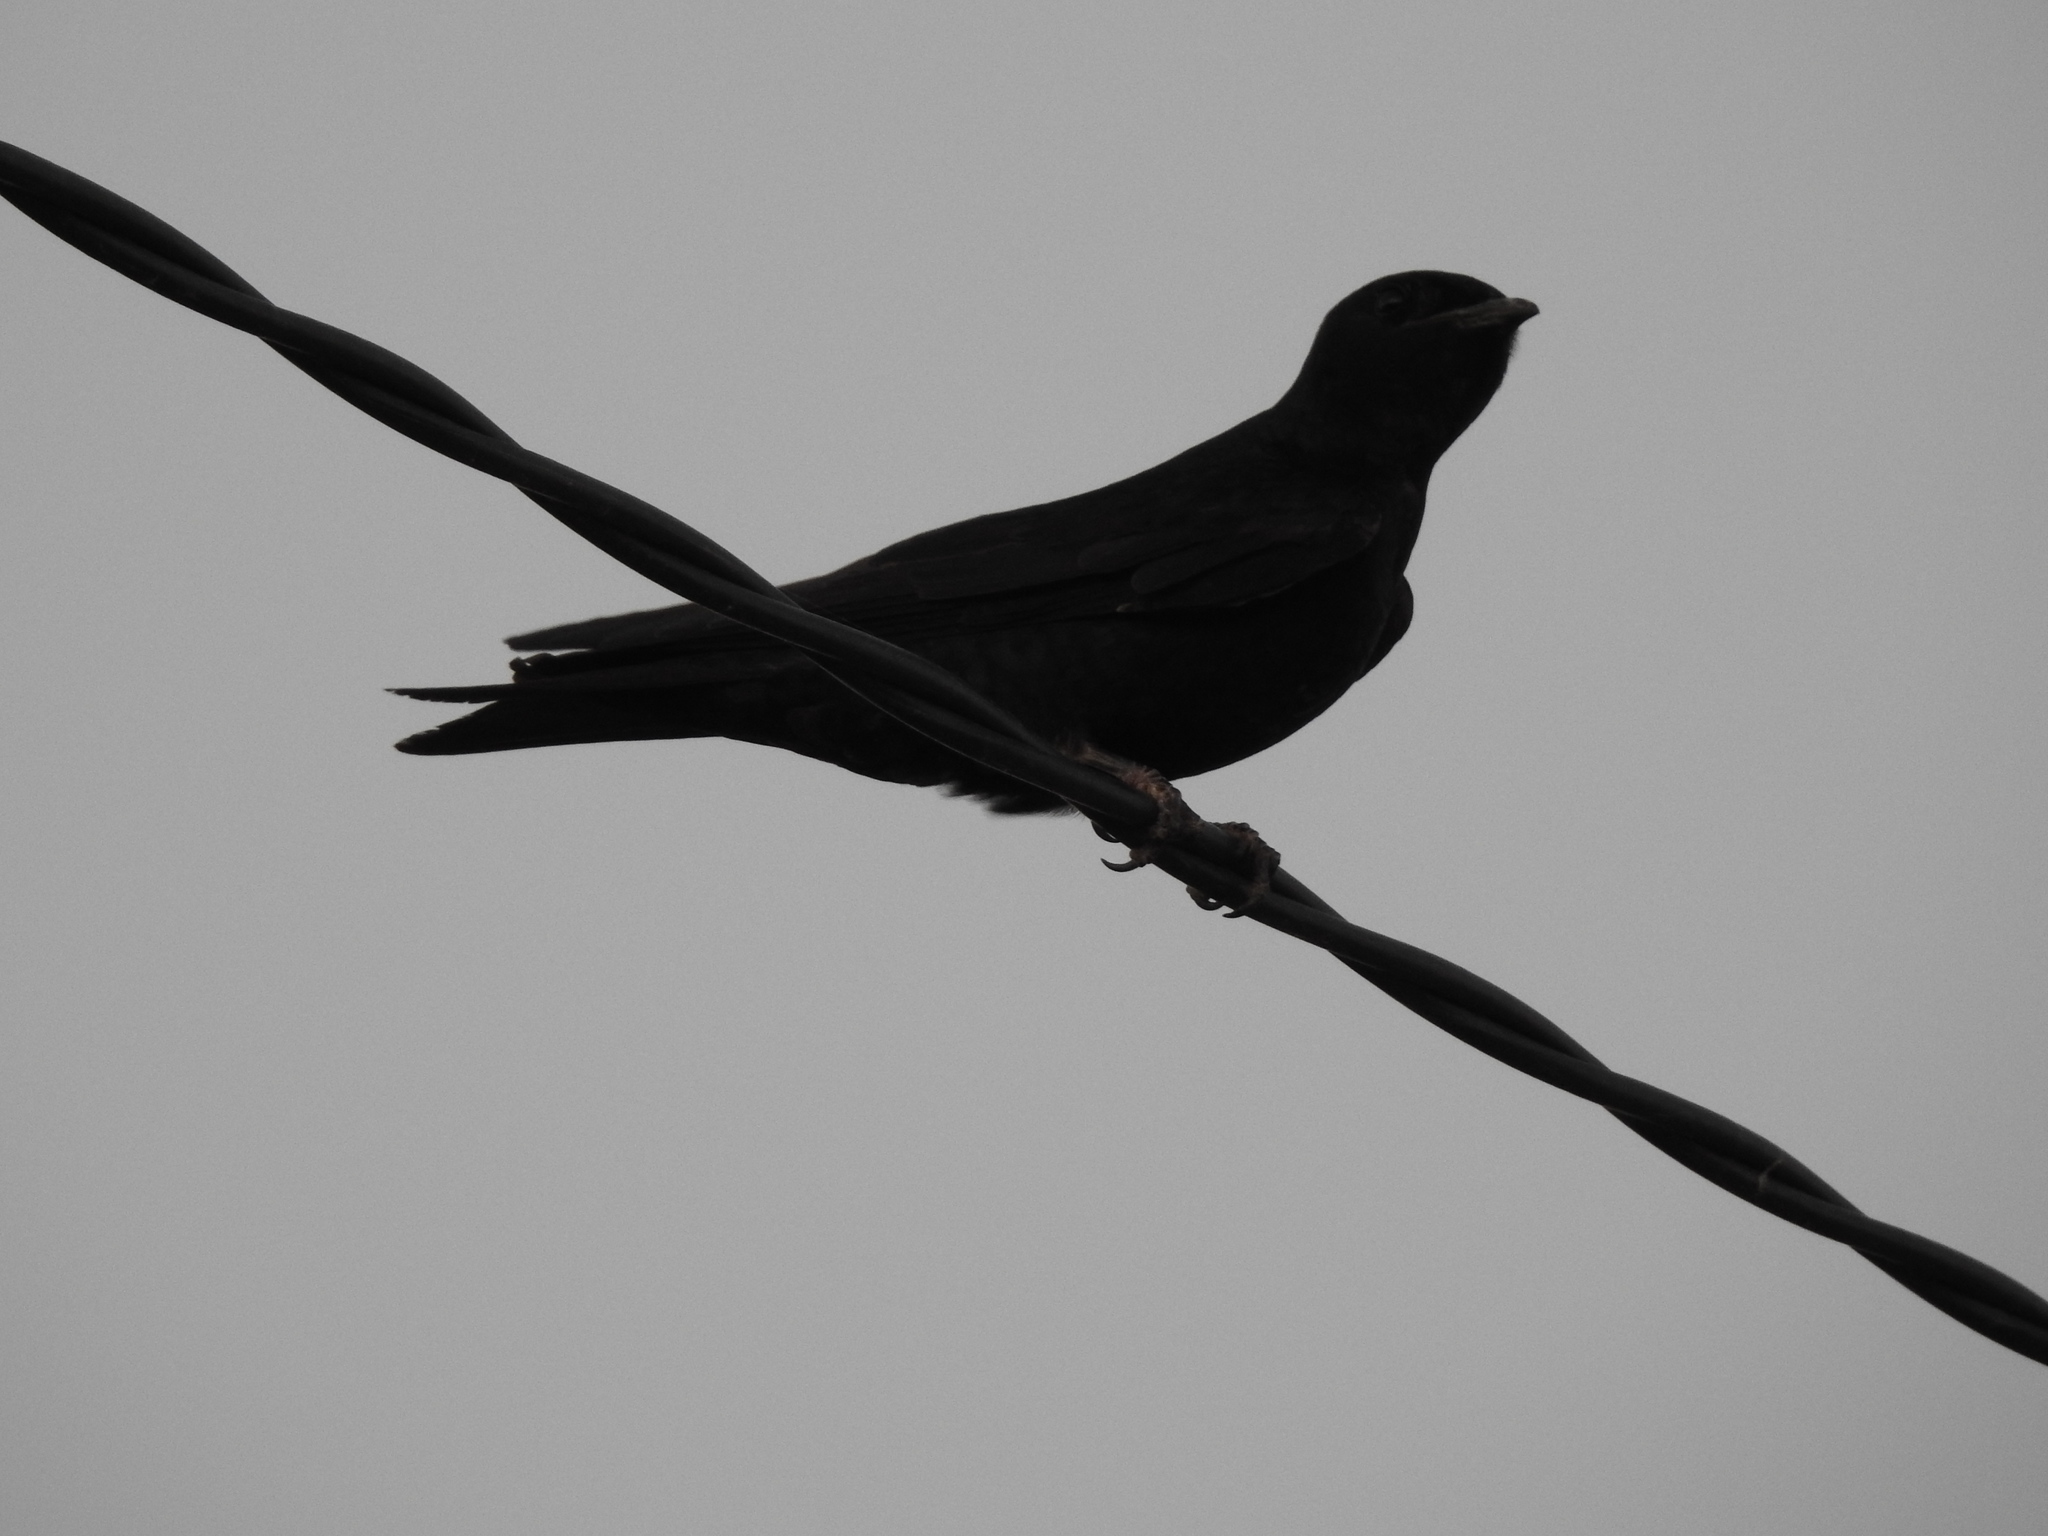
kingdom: Animalia
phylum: Chordata
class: Aves
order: Passeriformes
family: Hirundinidae
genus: Progne
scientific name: Progne elegans
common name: Southern martin
